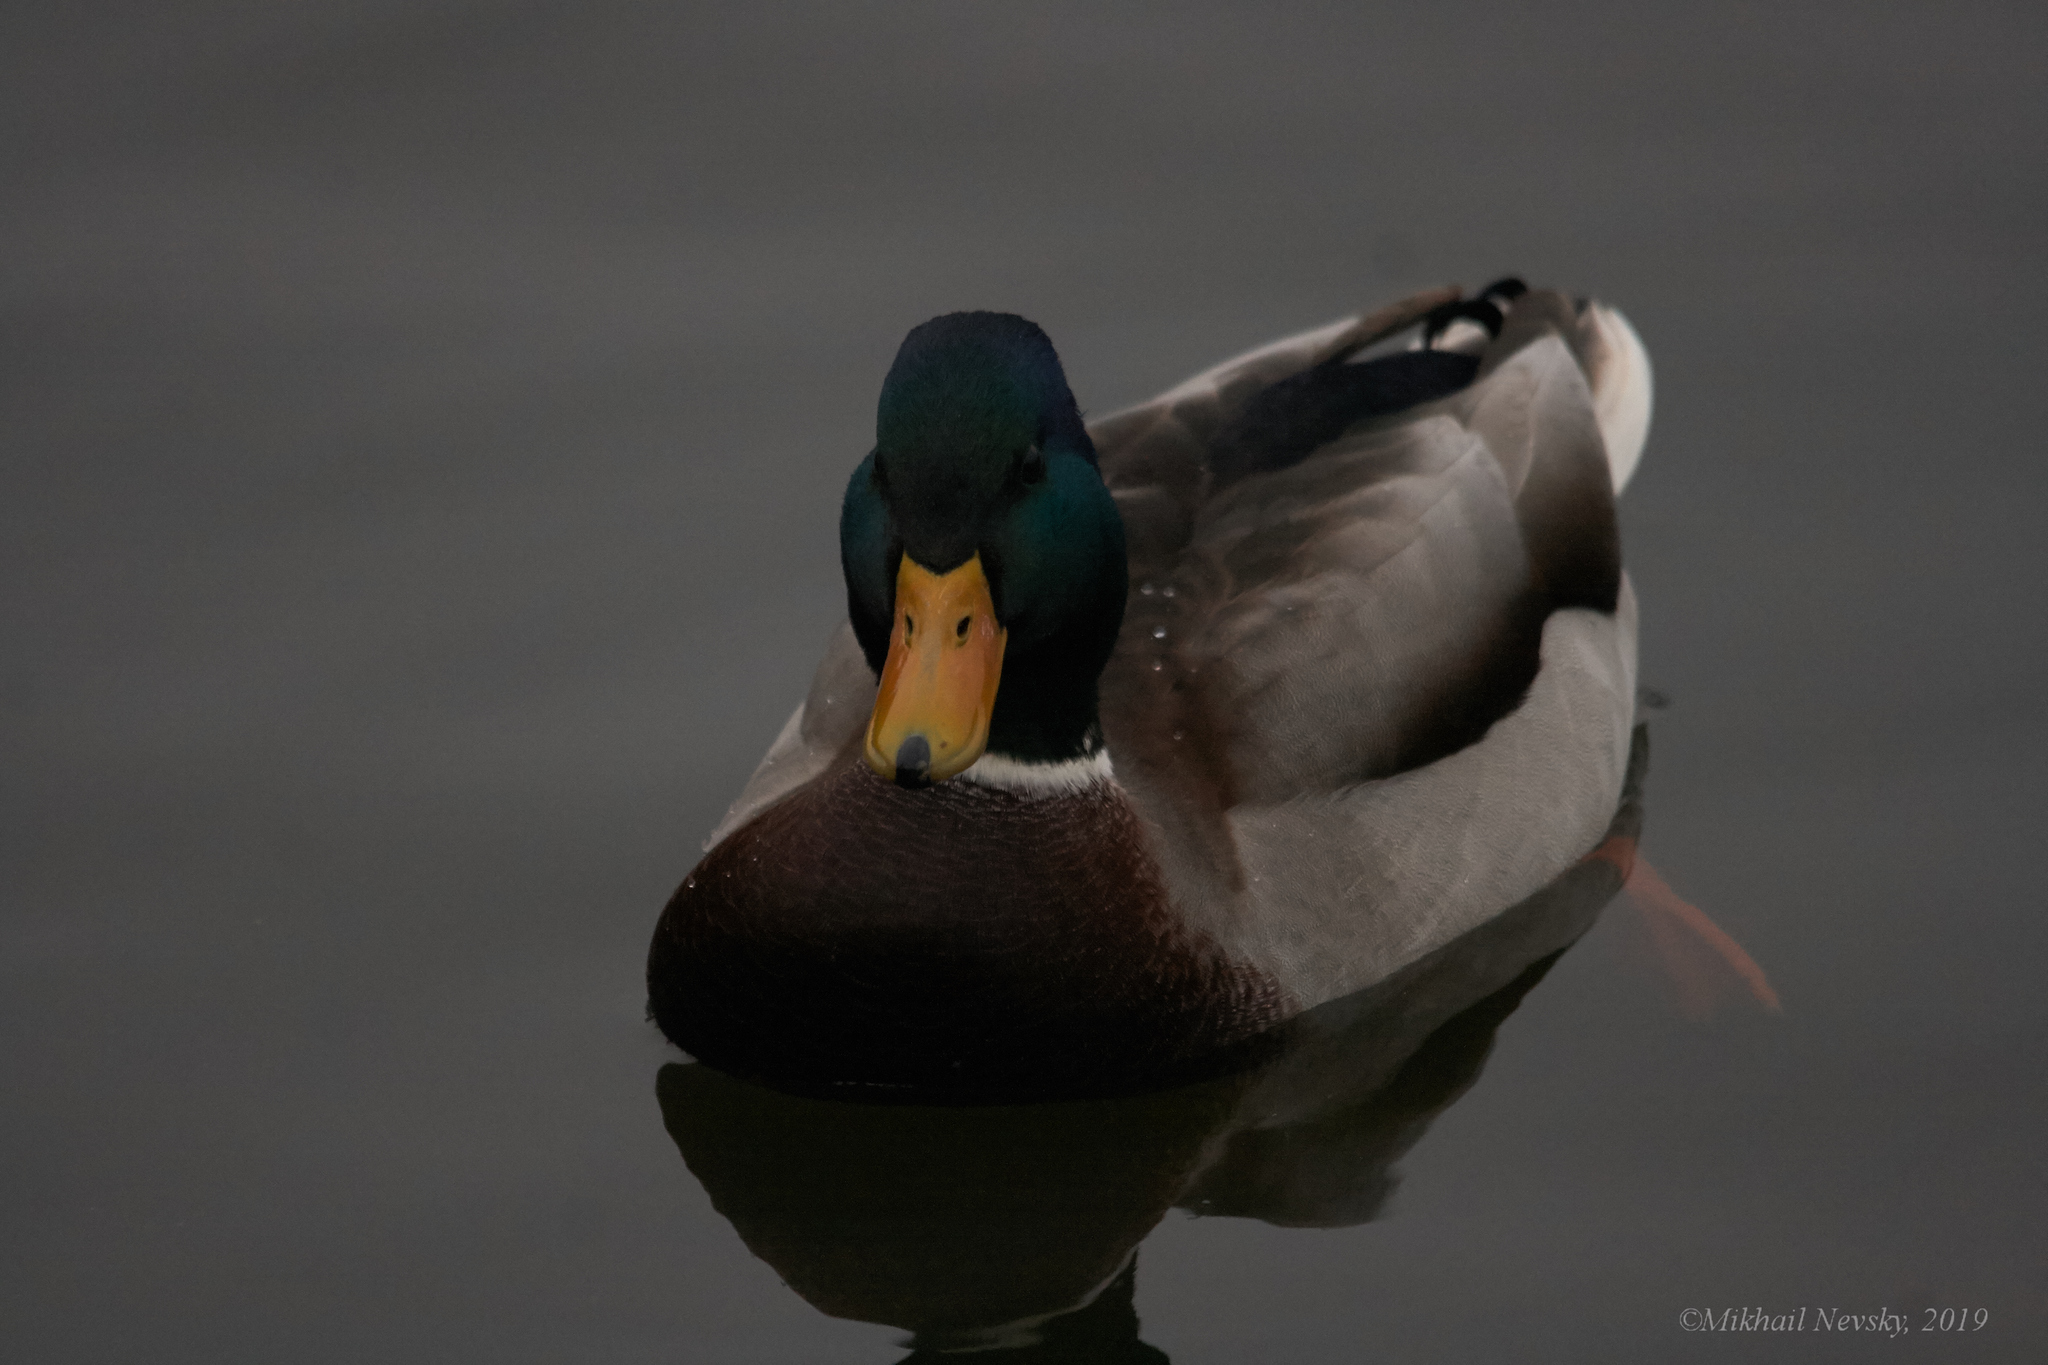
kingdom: Animalia
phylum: Chordata
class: Aves
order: Anseriformes
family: Anatidae
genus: Anas
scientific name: Anas platyrhynchos
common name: Mallard
